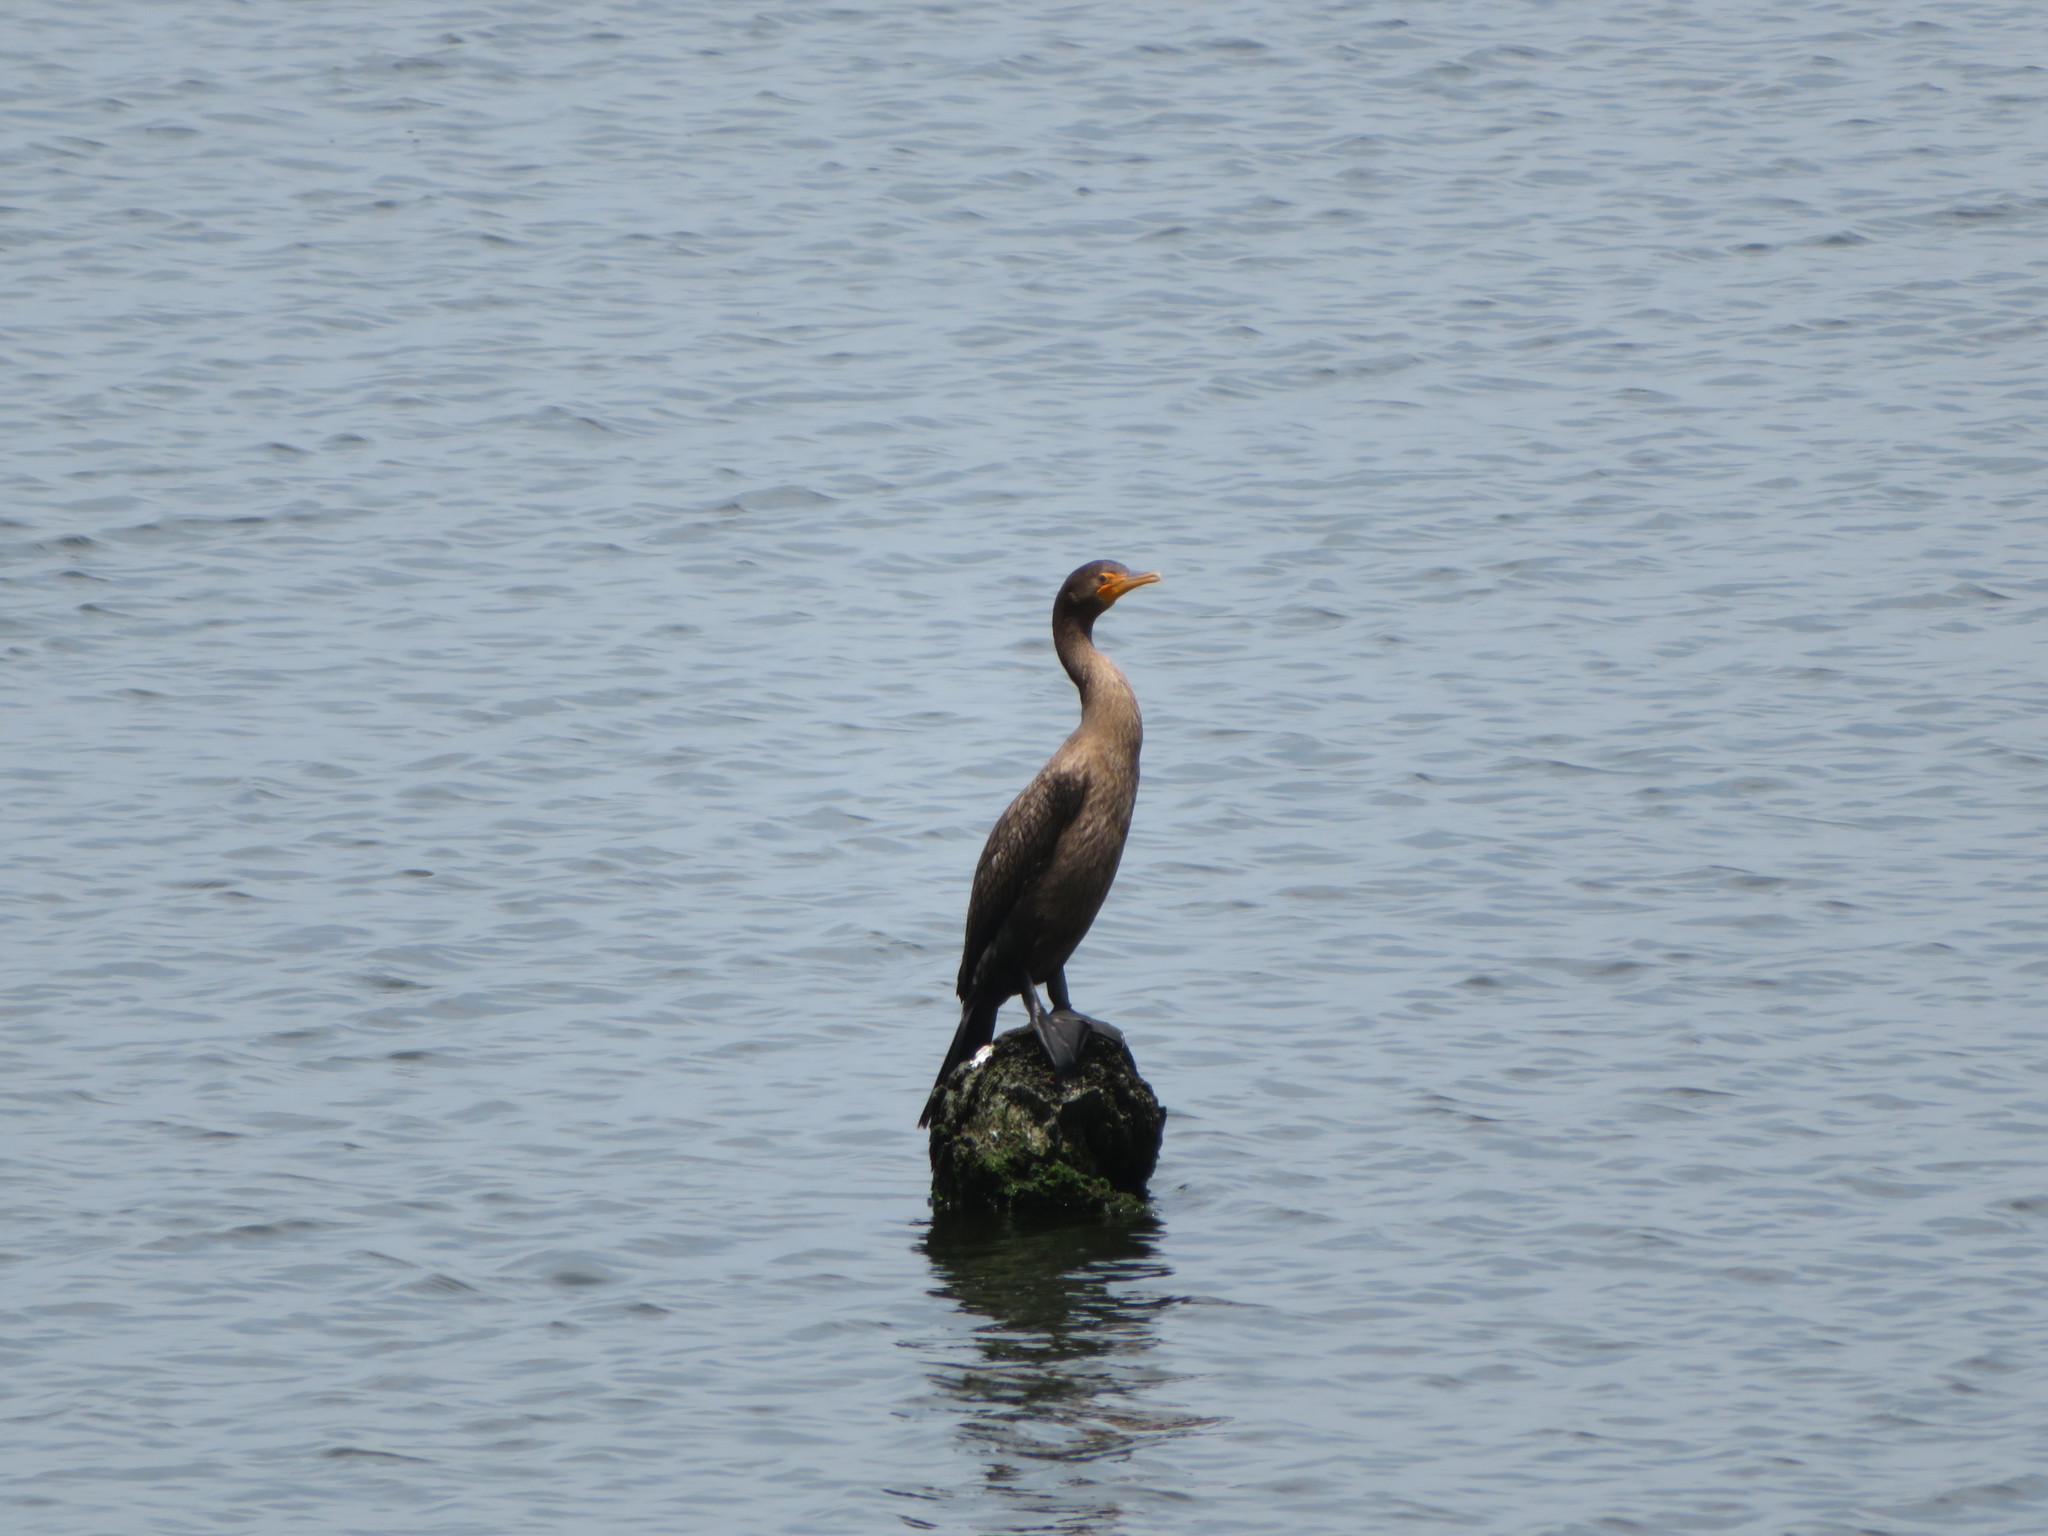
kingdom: Animalia
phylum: Chordata
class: Aves
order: Suliformes
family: Phalacrocoracidae
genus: Phalacrocorax
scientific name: Phalacrocorax auritus
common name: Double-crested cormorant
